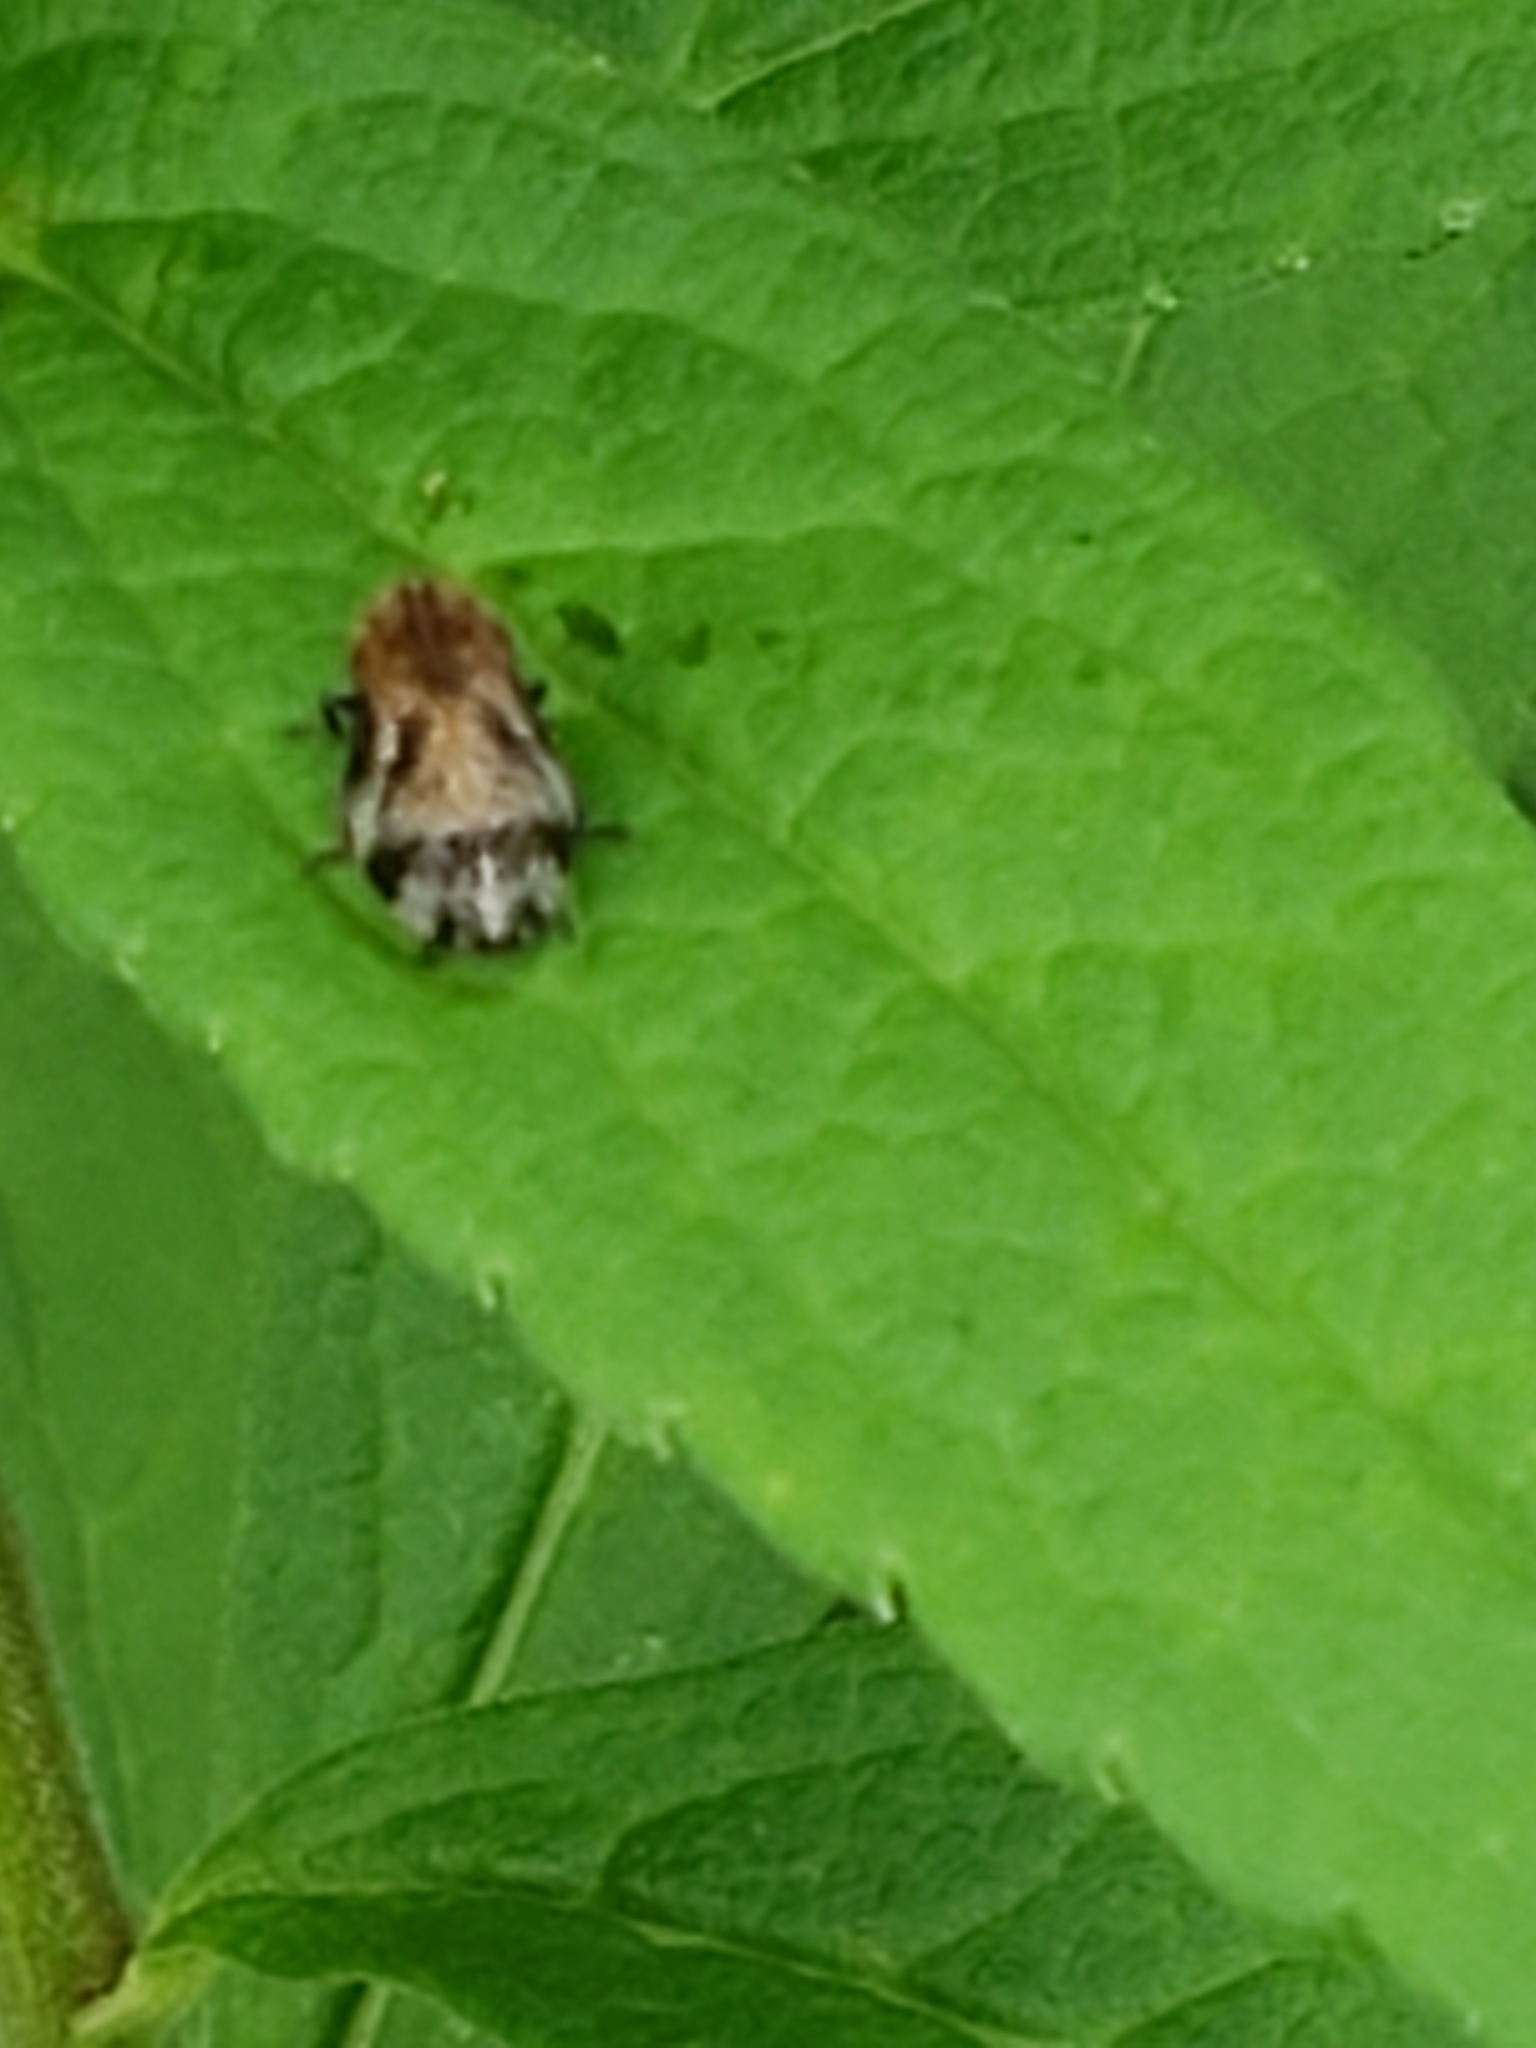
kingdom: Animalia
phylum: Arthropoda
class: Insecta
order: Hemiptera
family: Aphrophoridae
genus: Lepyronia
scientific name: Lepyronia quadrangularis
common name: Diamond-backed spittlebug
